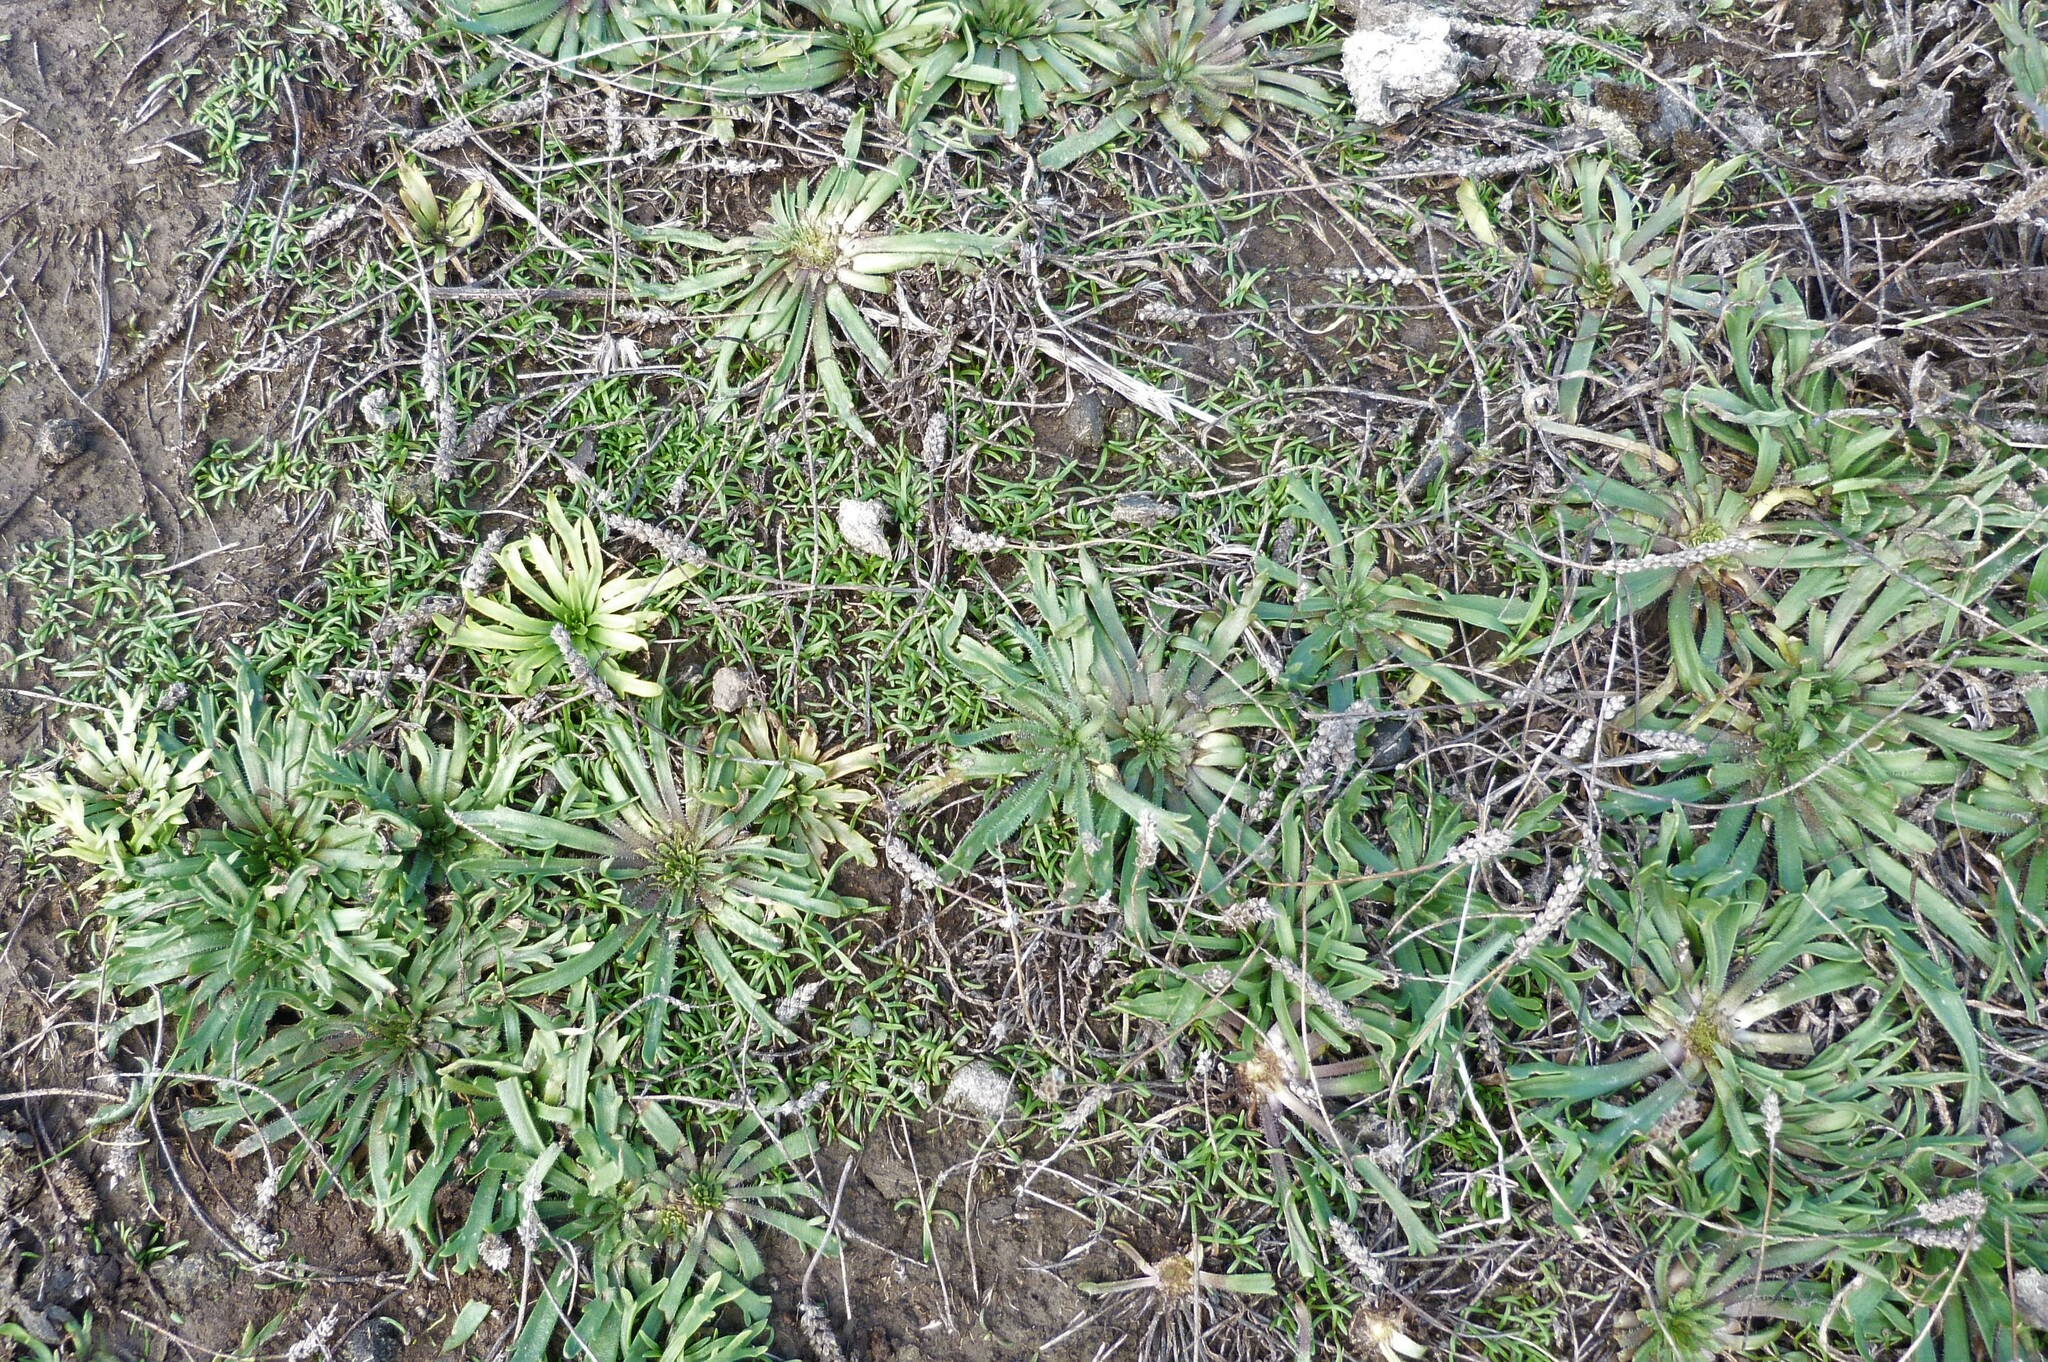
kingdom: Plantae
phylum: Tracheophyta
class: Magnoliopsida
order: Lamiales
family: Plantaginaceae
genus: Plantago
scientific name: Plantago coronopus
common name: Buck's-horn plantain
